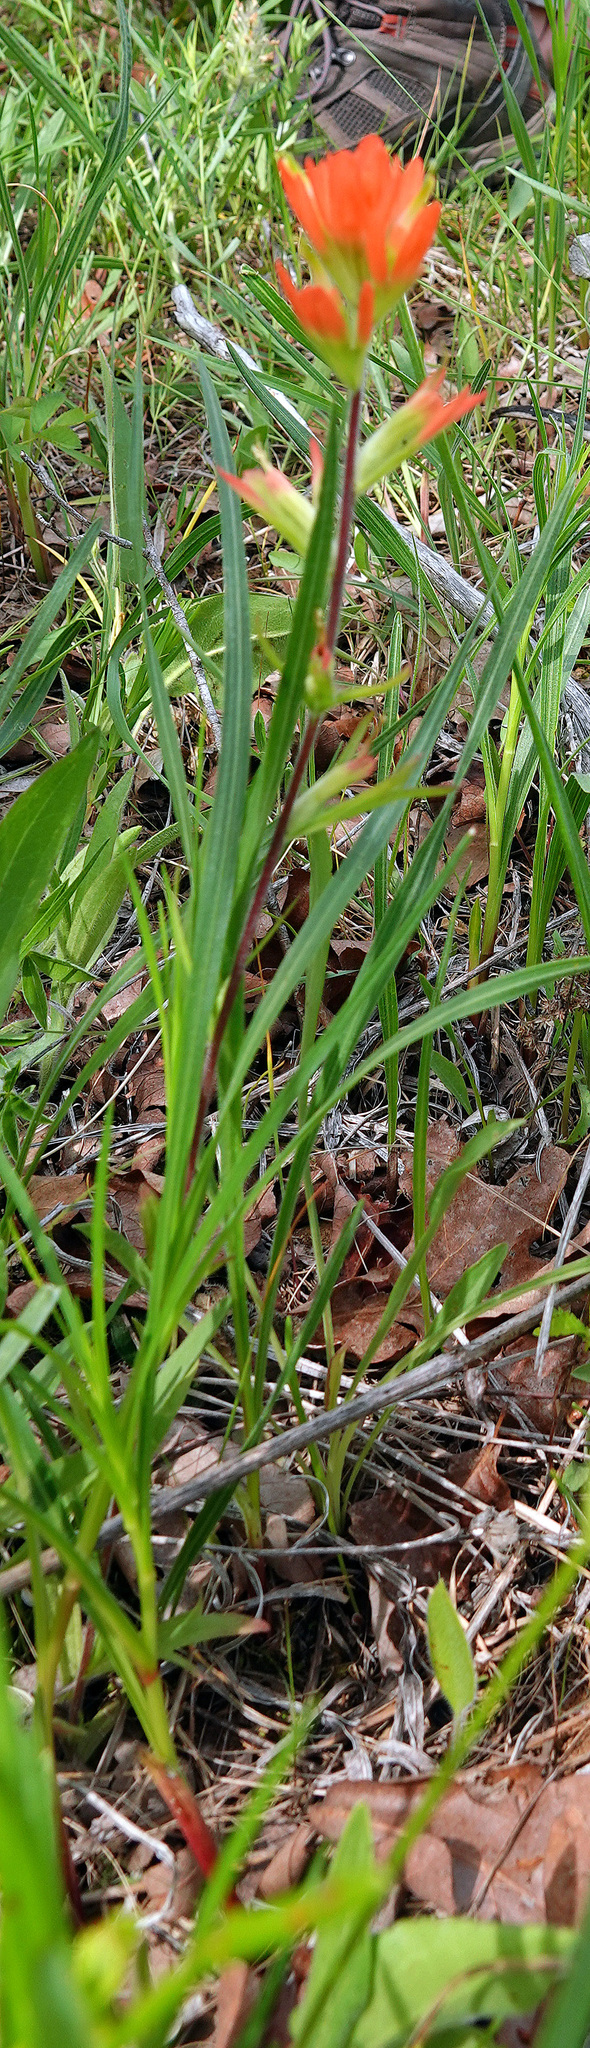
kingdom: Plantae
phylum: Tracheophyta
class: Magnoliopsida
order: Lamiales
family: Orobanchaceae
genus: Castilleja
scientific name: Castilleja coccinea
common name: Scarlet paintbrush
